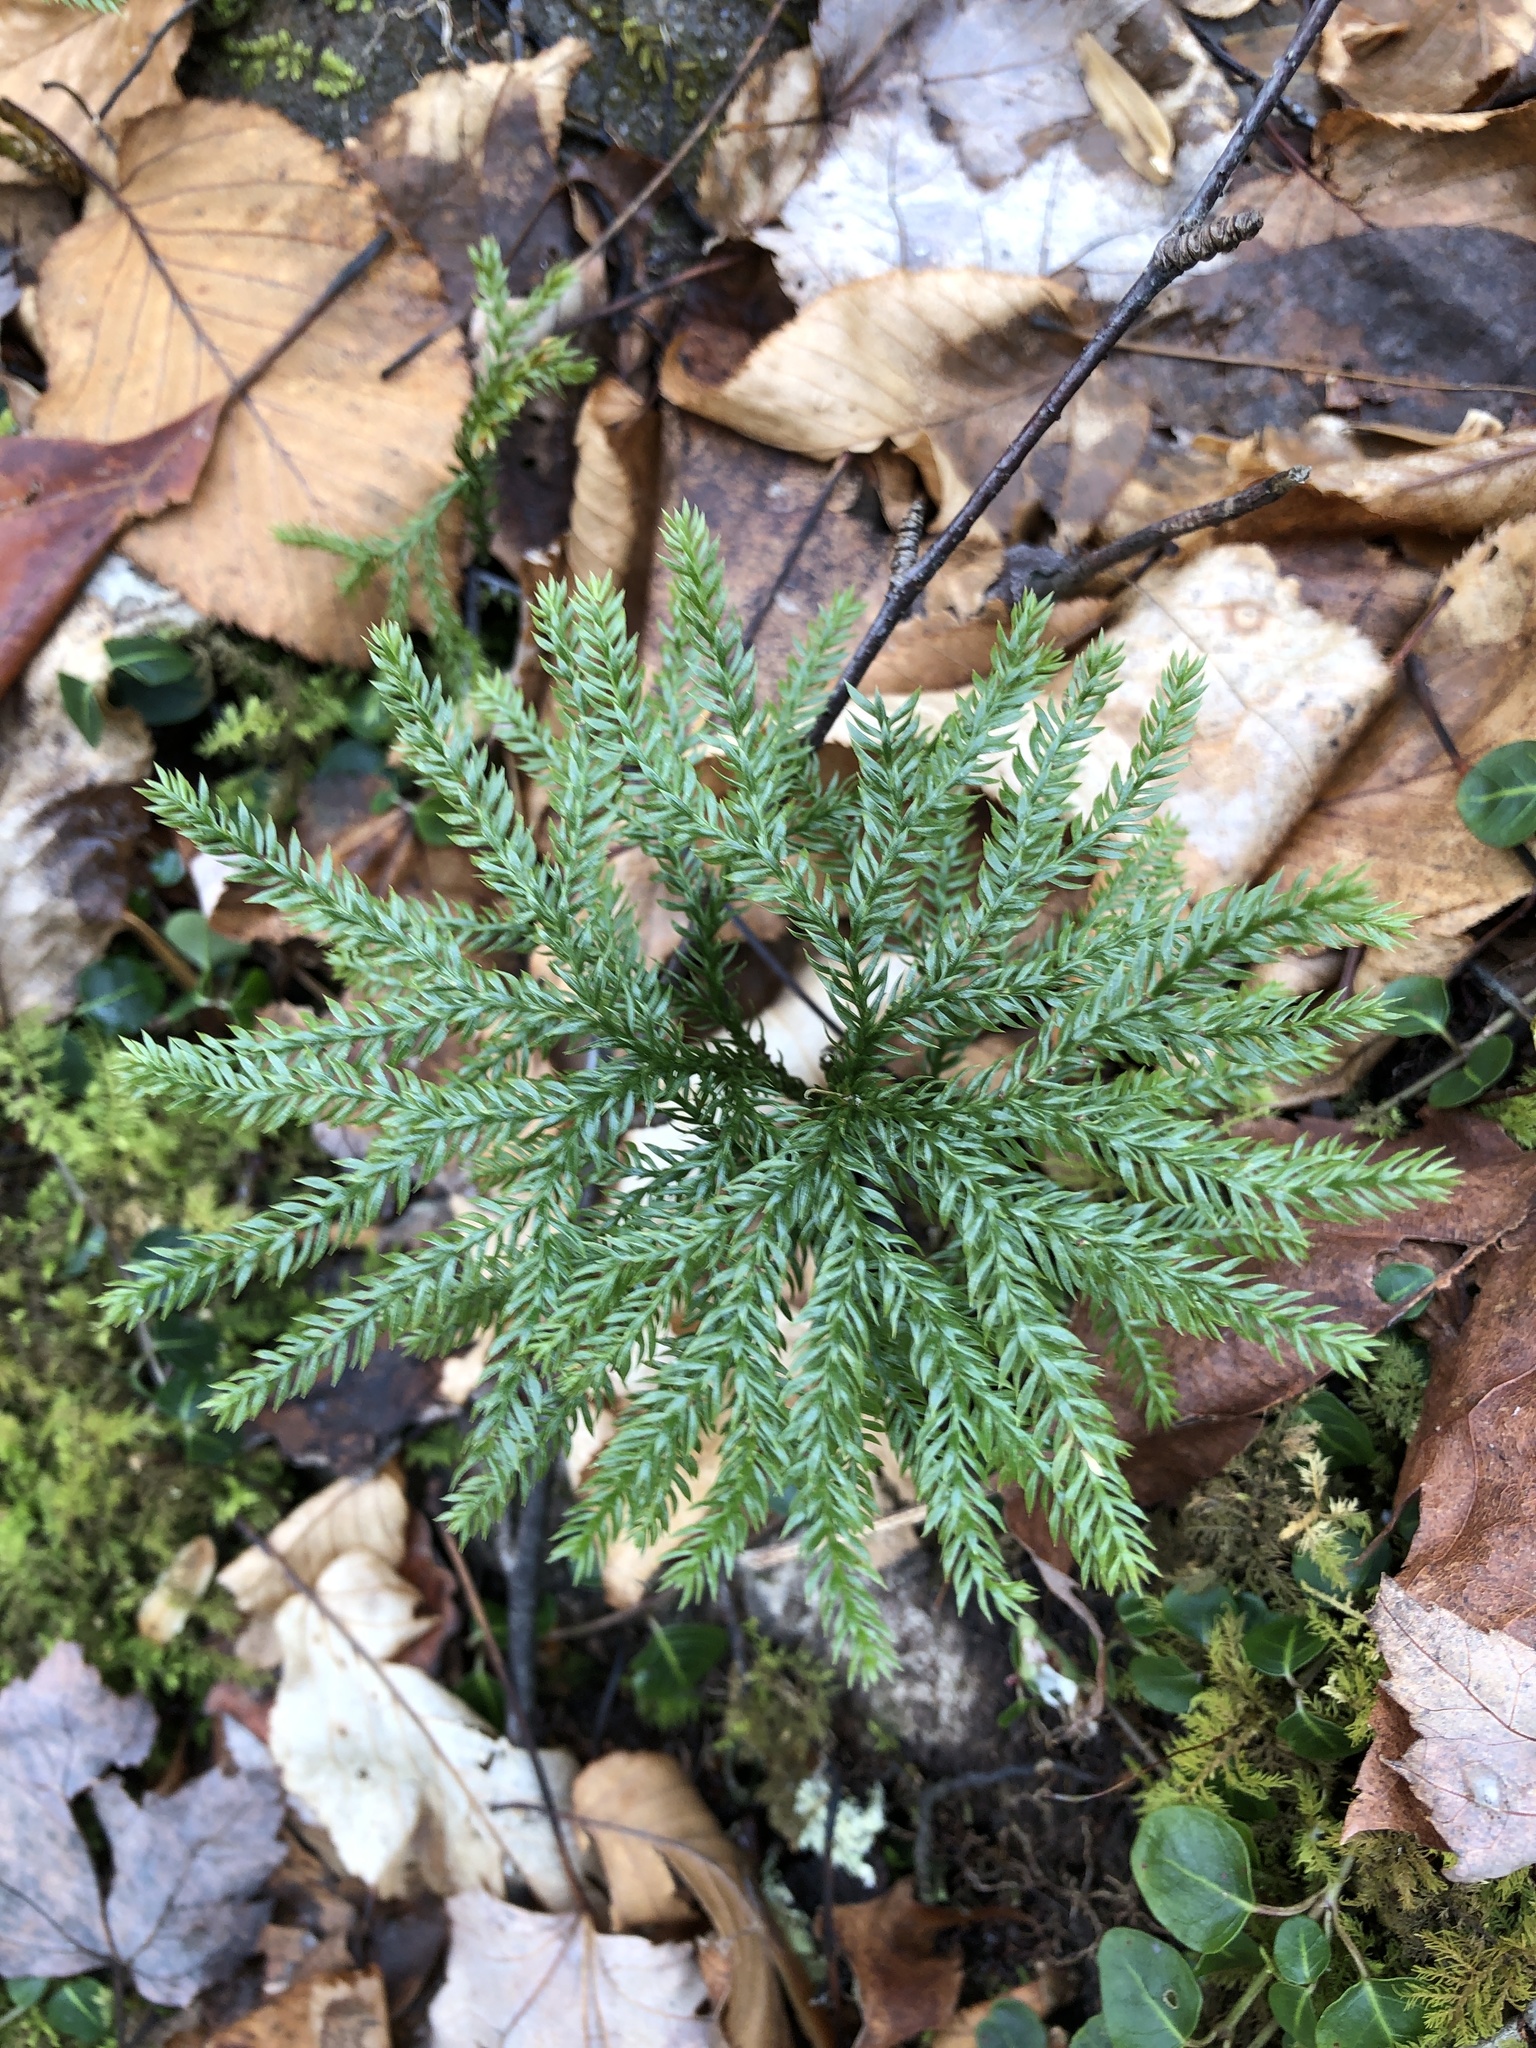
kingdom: Plantae
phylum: Tracheophyta
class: Lycopodiopsida
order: Lycopodiales
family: Lycopodiaceae
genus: Dendrolycopodium
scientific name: Dendrolycopodium obscurum
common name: Common ground-pine
